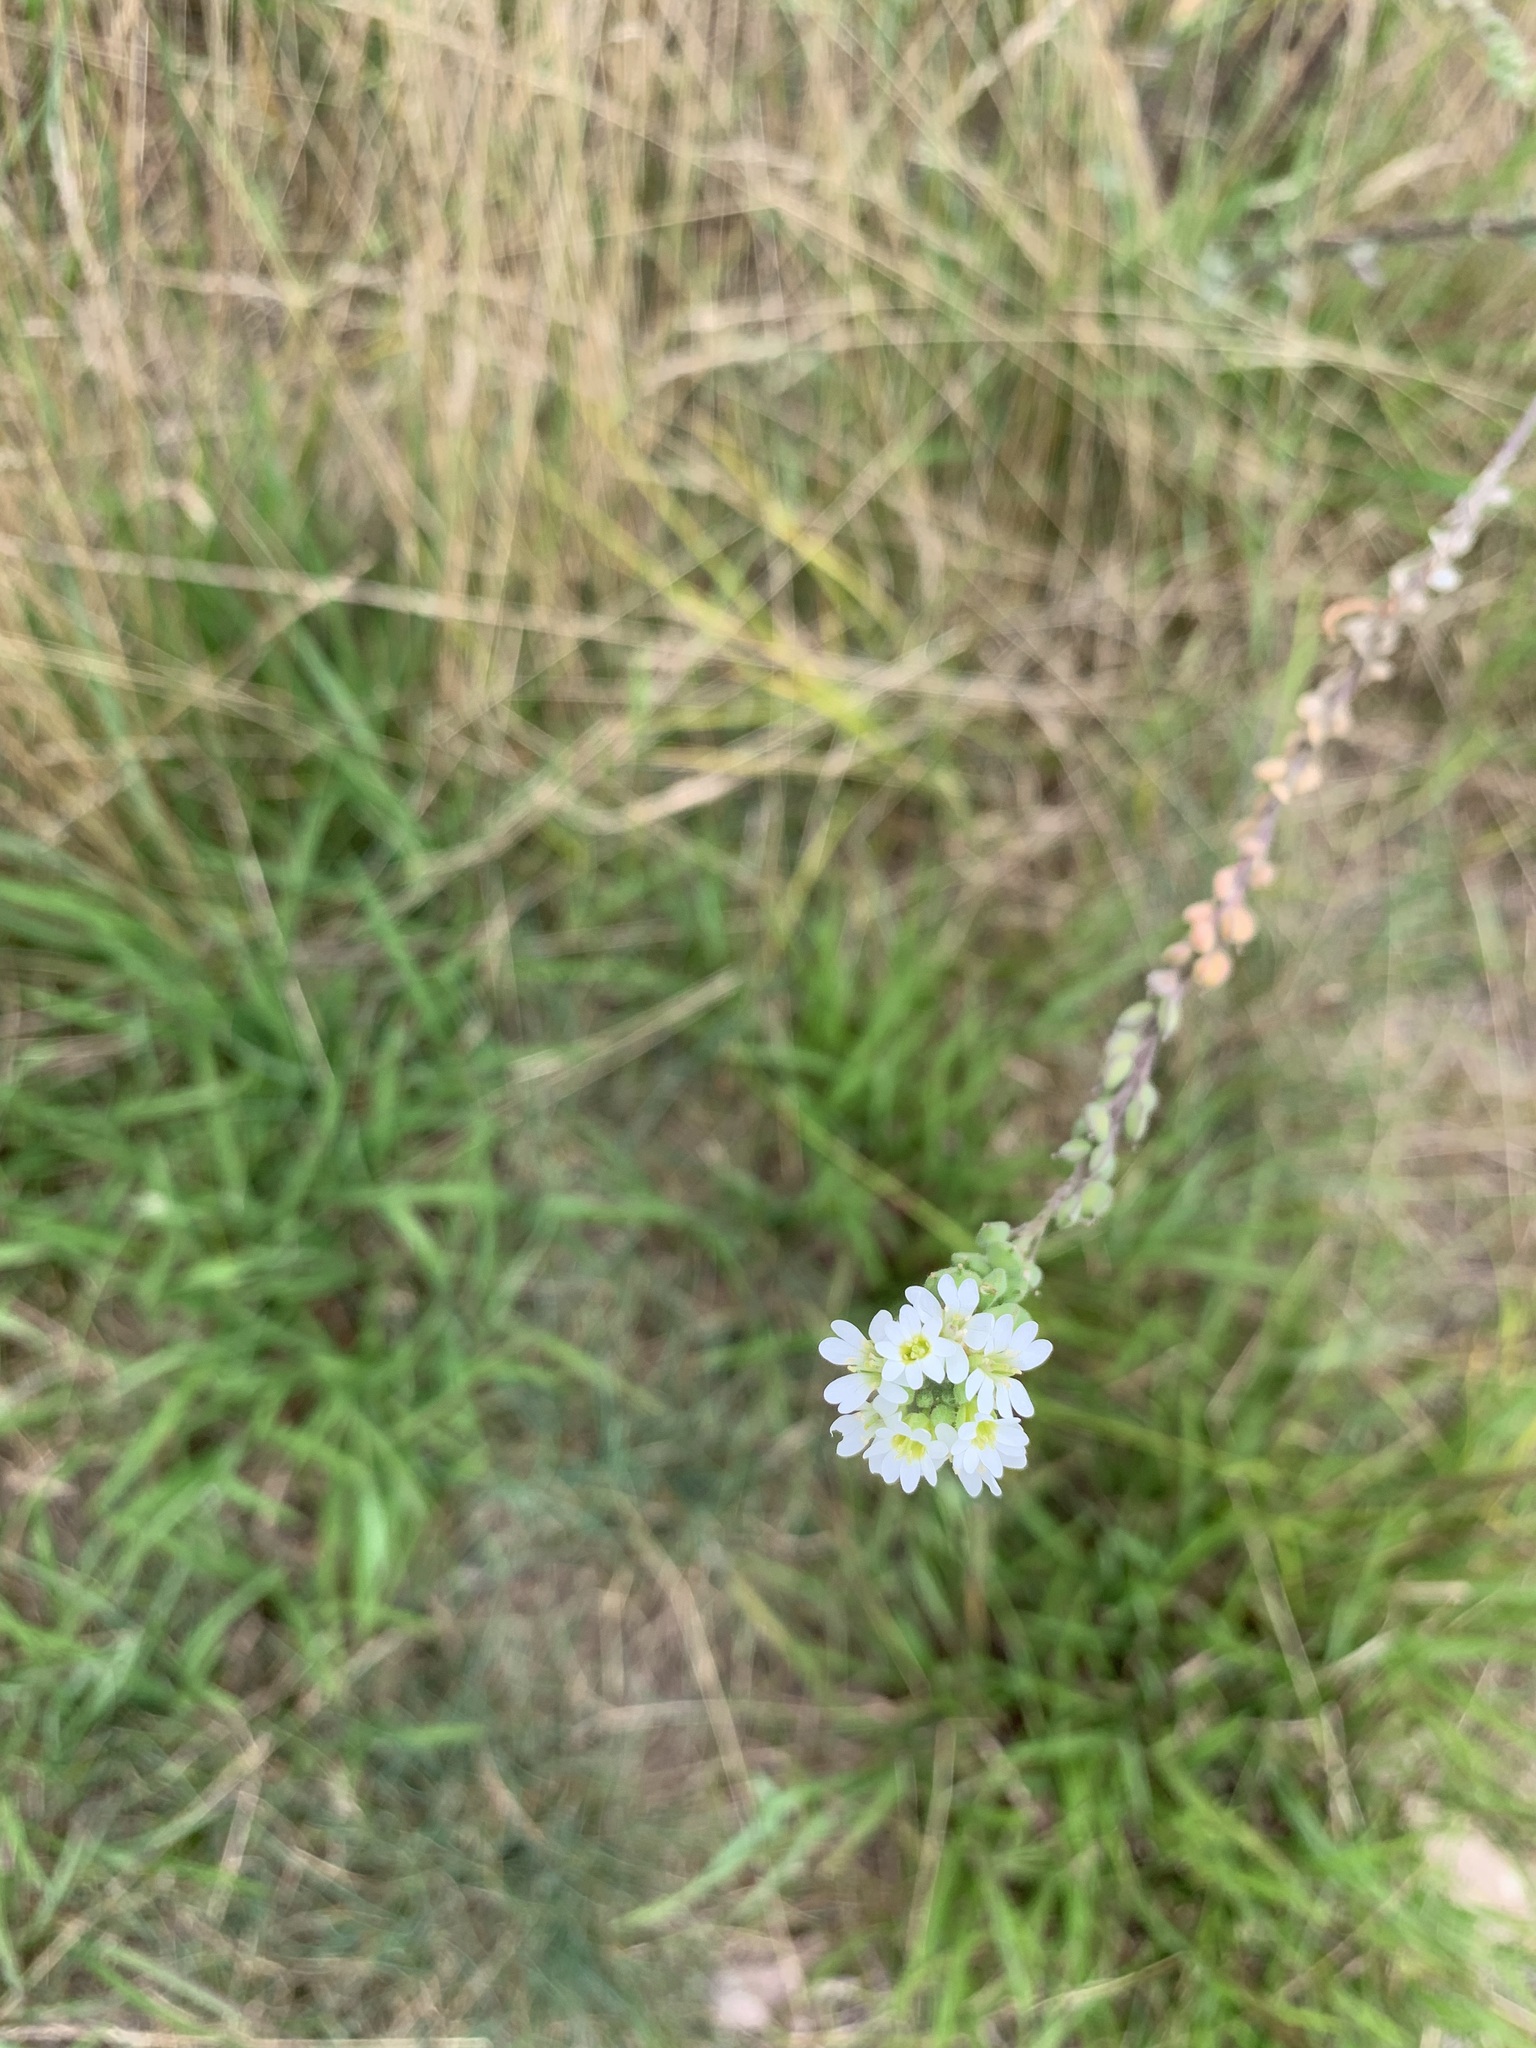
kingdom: Plantae
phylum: Tracheophyta
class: Magnoliopsida
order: Brassicales
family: Brassicaceae
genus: Berteroa
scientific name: Berteroa incana
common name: Hoary alison
